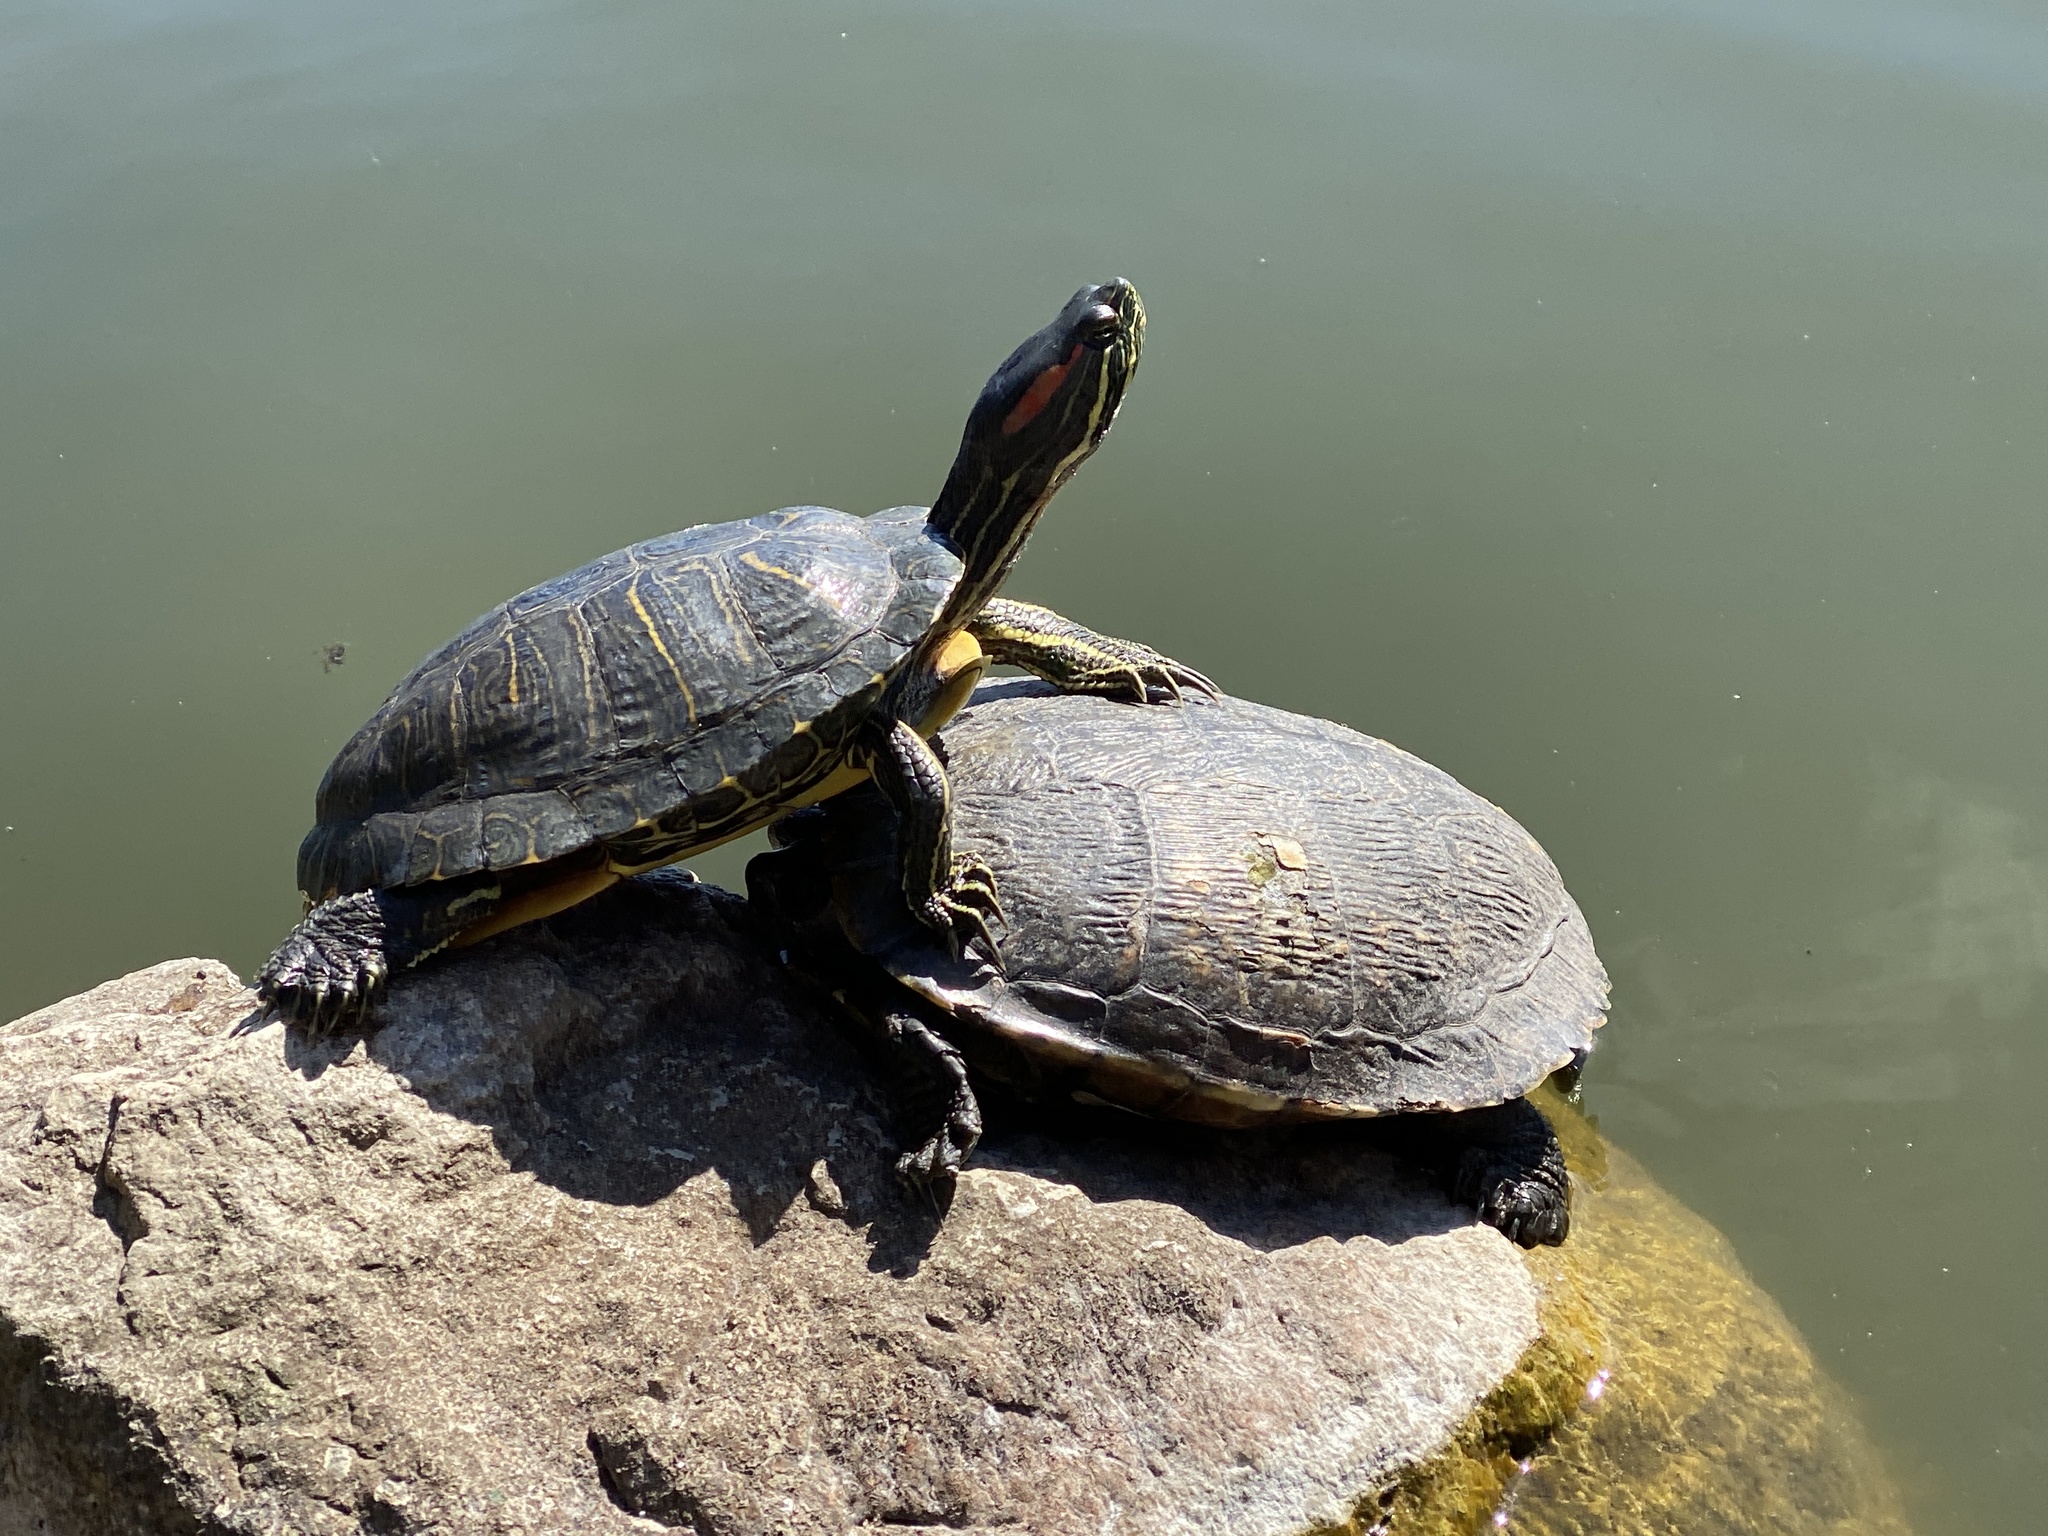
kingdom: Animalia
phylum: Chordata
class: Testudines
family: Emydidae
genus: Trachemys
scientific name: Trachemys scripta
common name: Slider
